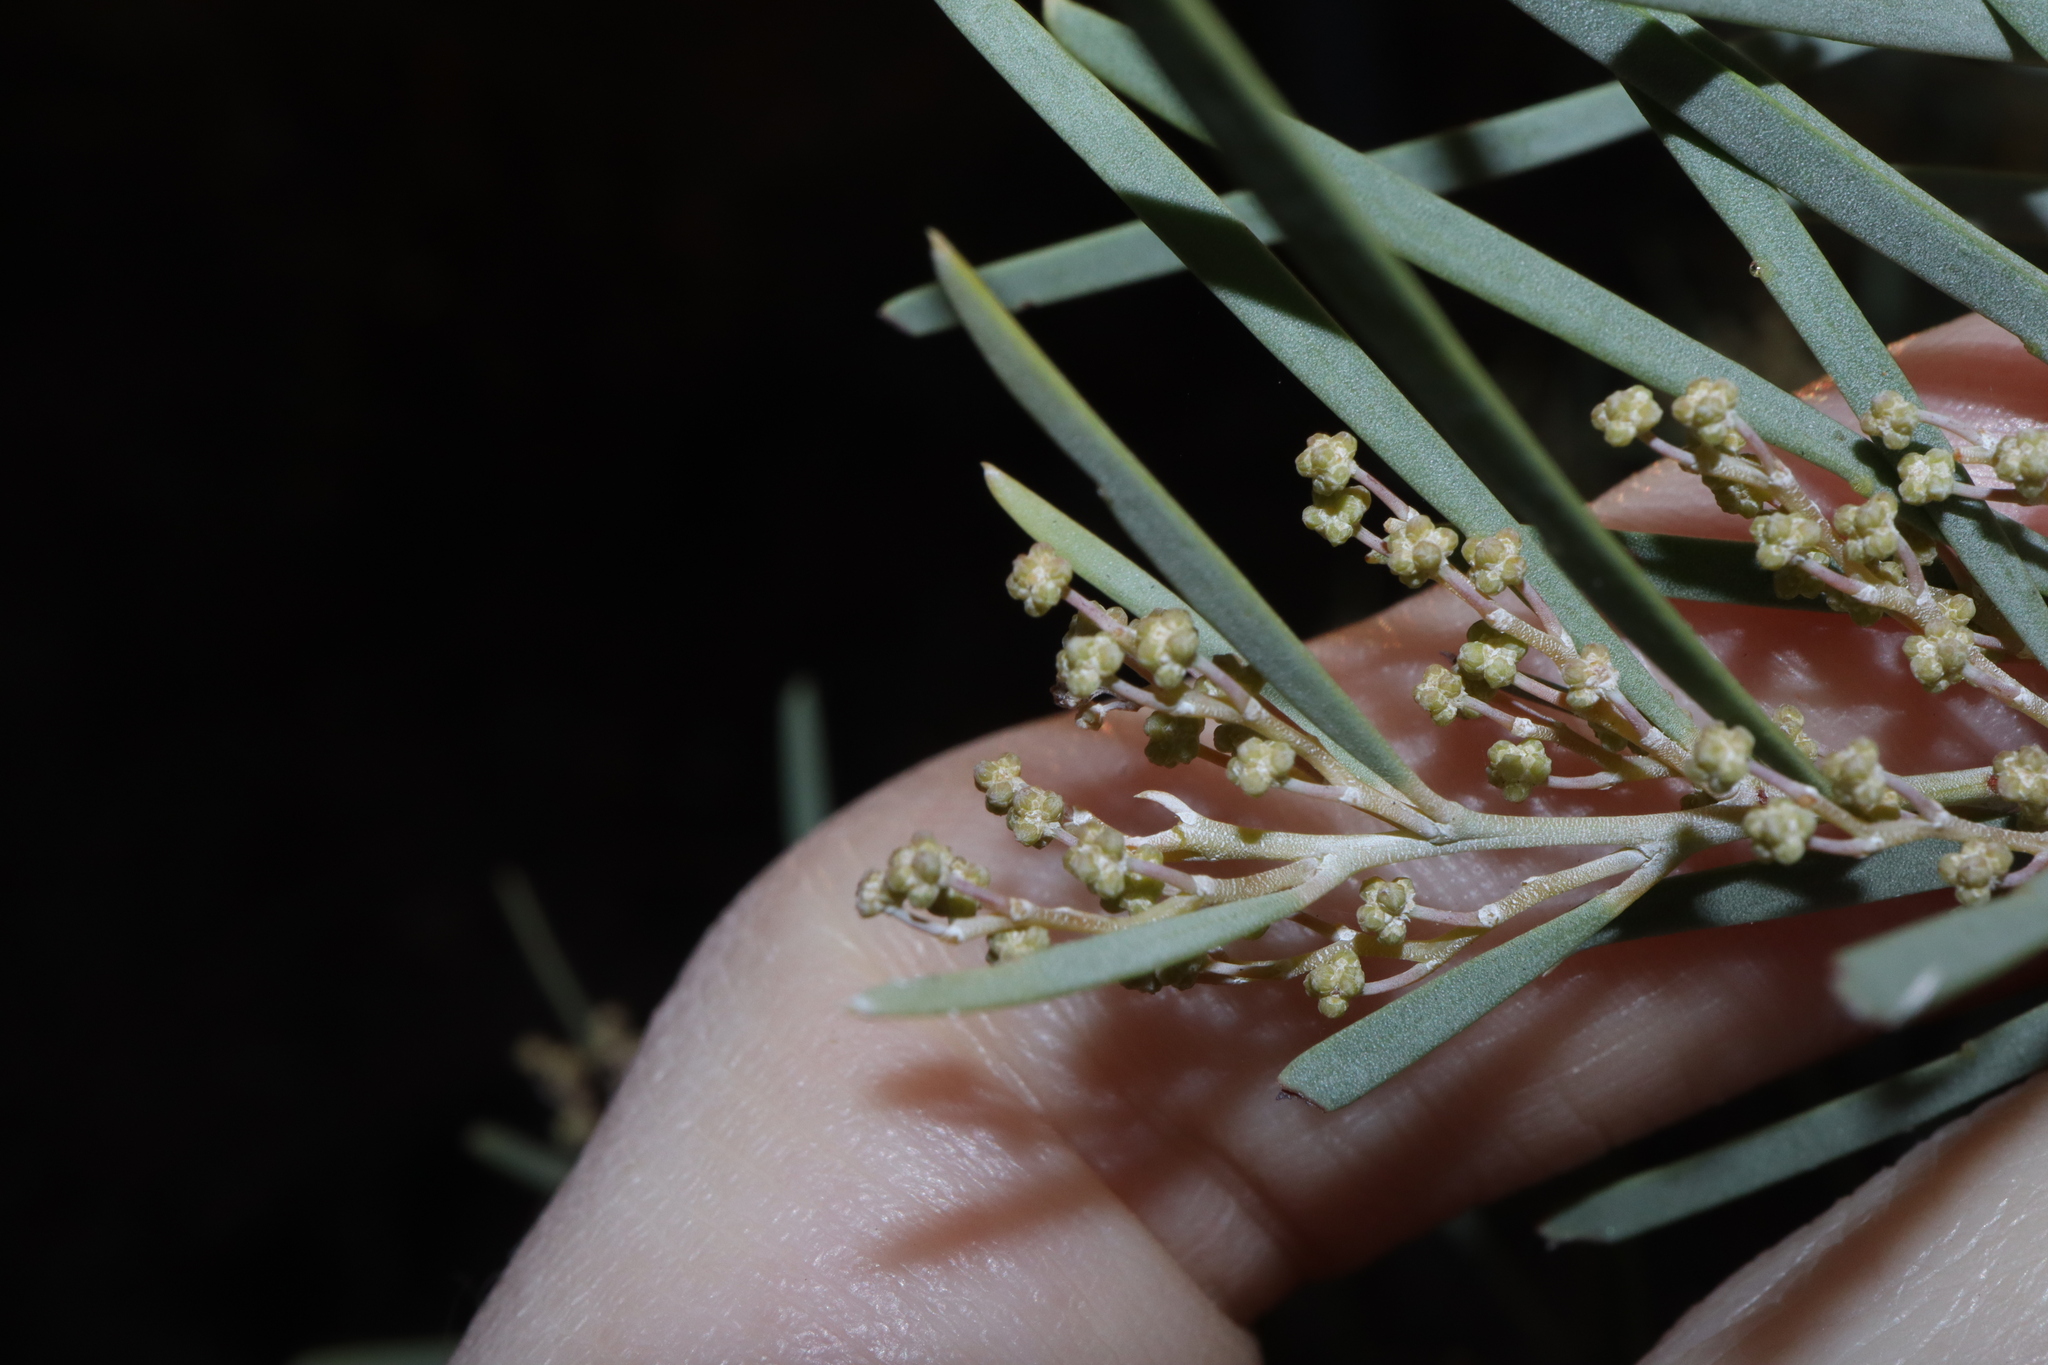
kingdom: Plantae
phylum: Tracheophyta
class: Magnoliopsida
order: Fabales
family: Fabaceae
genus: Acacia
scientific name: Acacia boormanii
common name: Snowy river wattle
